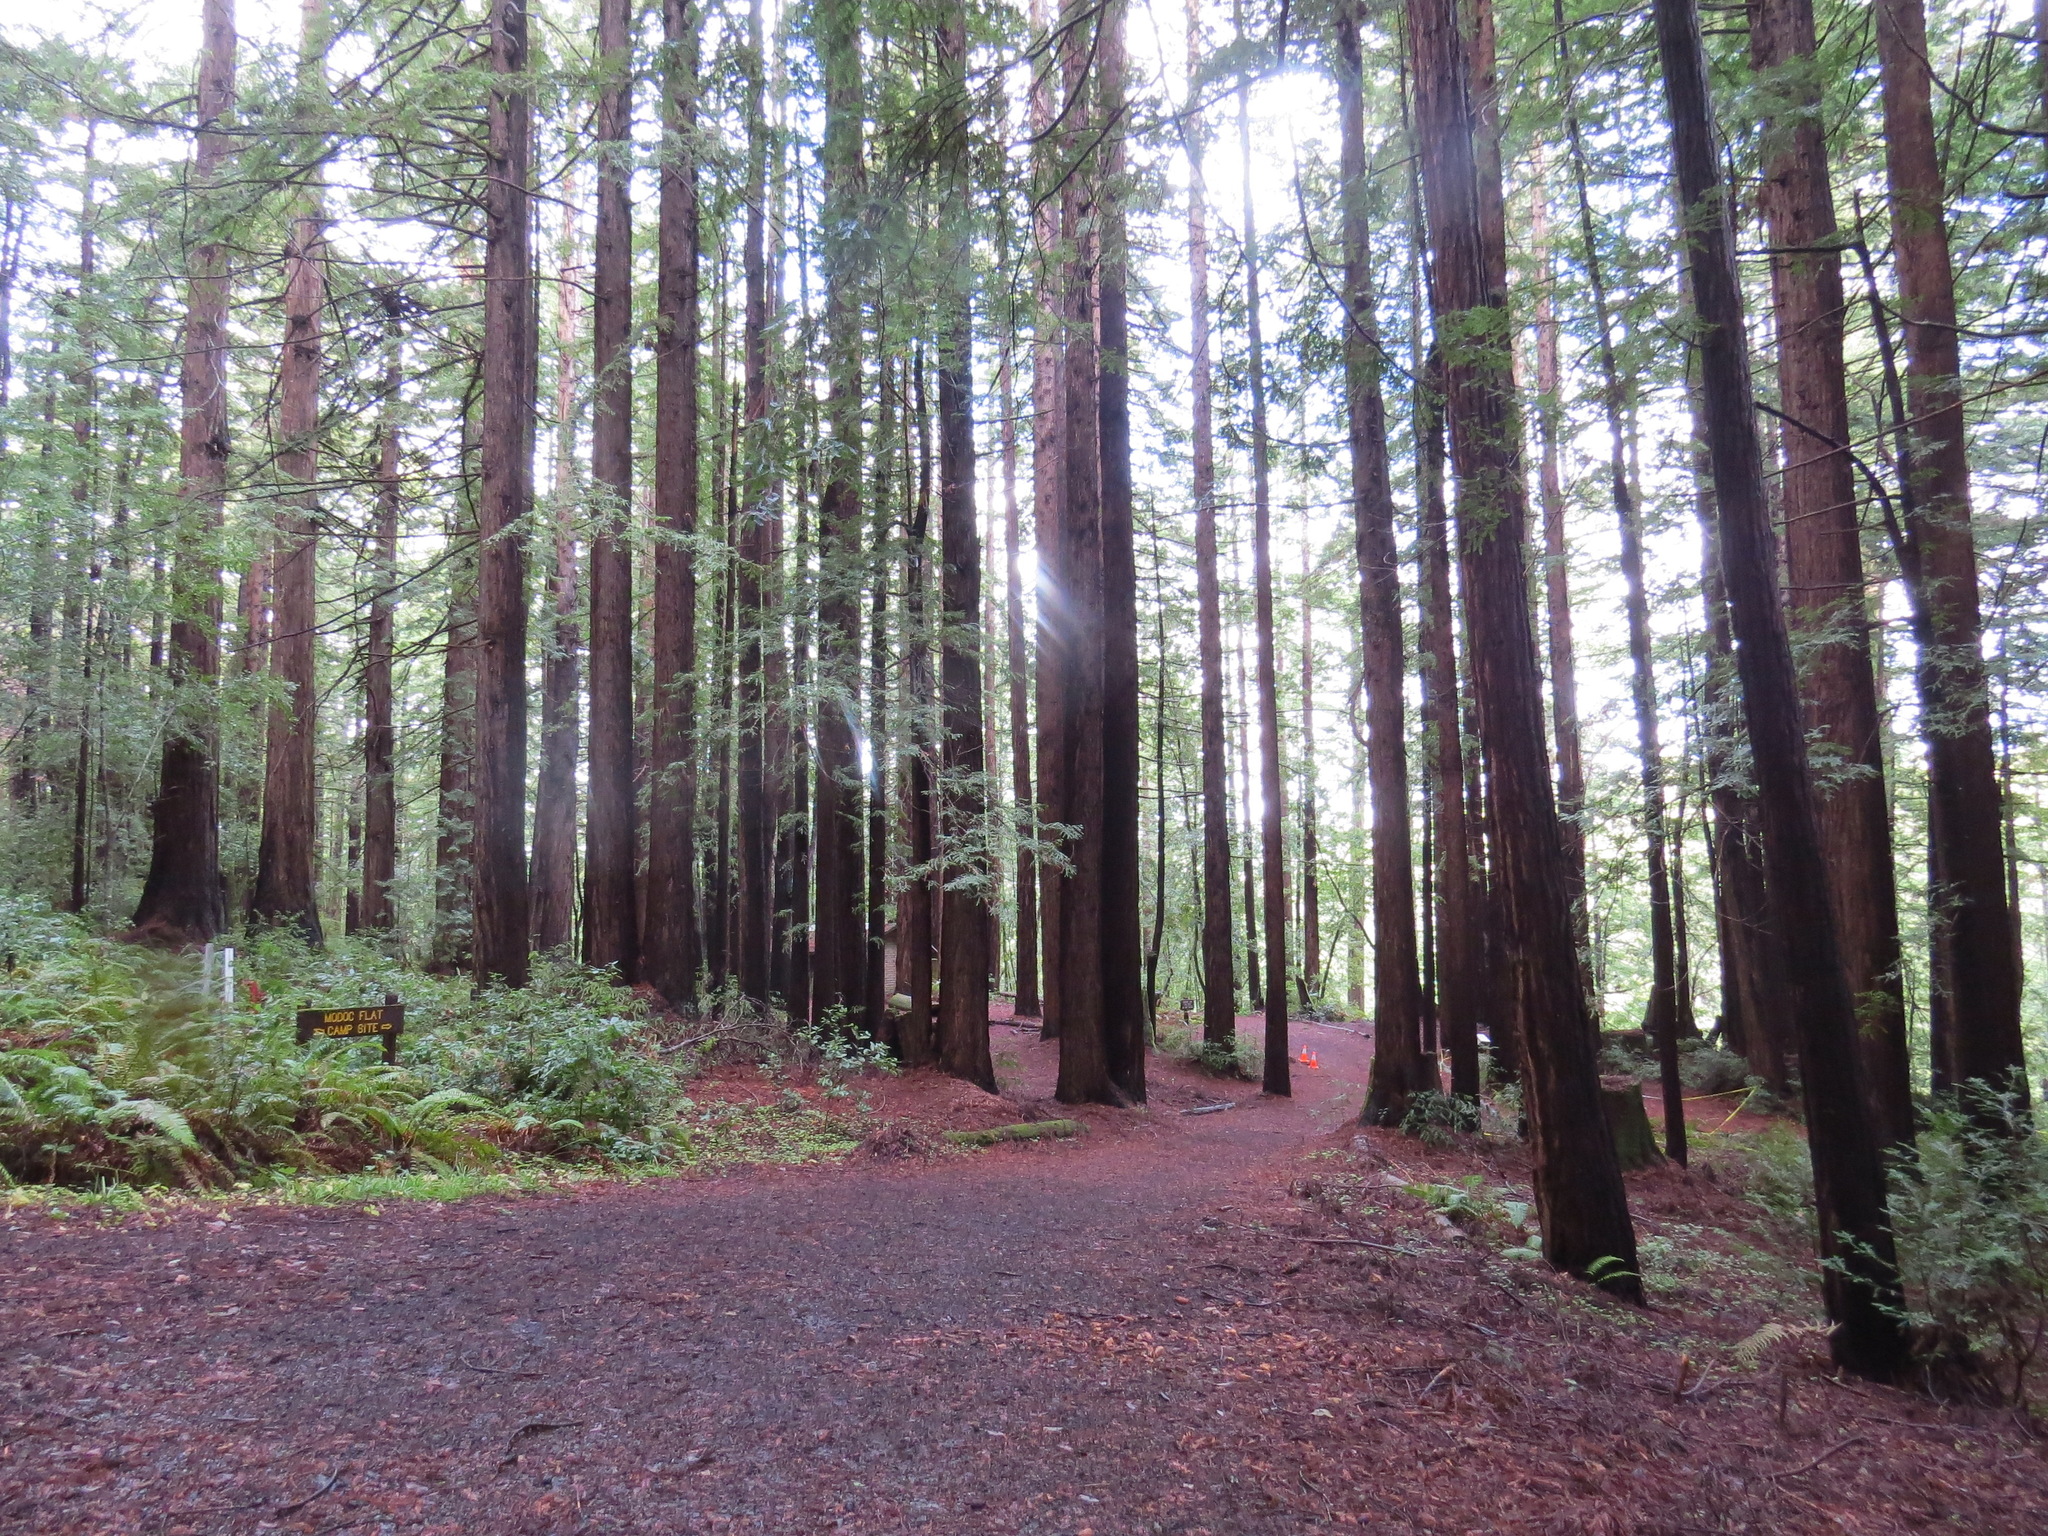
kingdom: Plantae
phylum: Tracheophyta
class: Pinopsida
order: Pinales
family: Cupressaceae
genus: Sequoia
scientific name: Sequoia sempervirens
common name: Coast redwood
